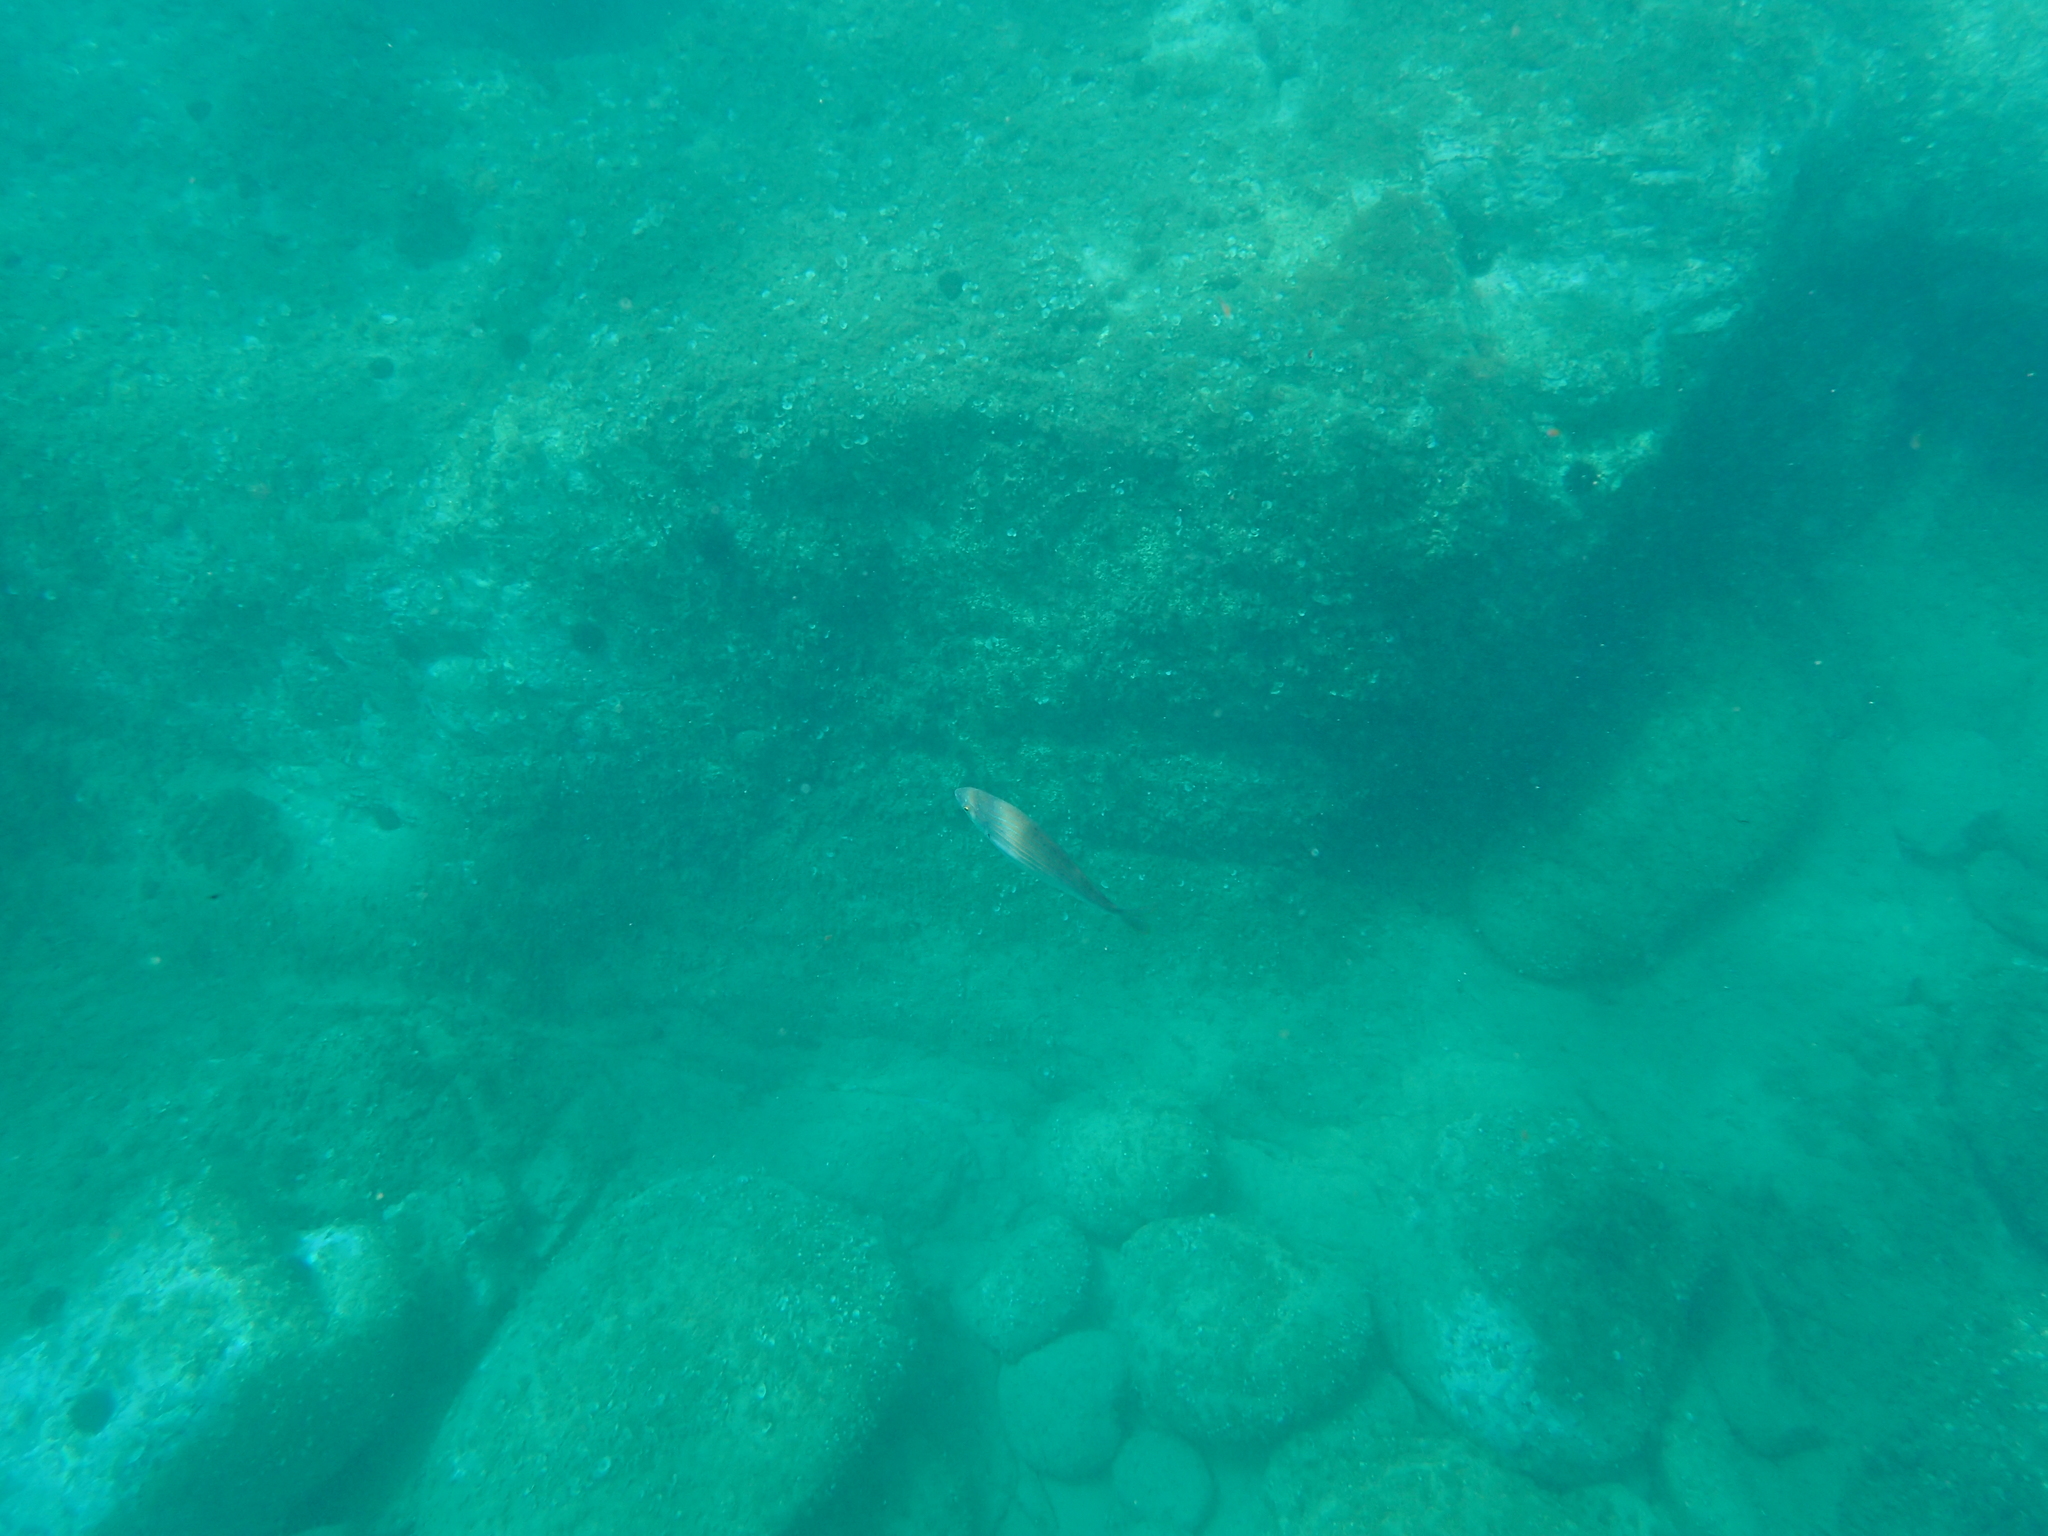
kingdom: Animalia
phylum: Chordata
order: Perciformes
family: Sparidae
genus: Sarpa
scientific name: Sarpa salpa
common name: Salema
